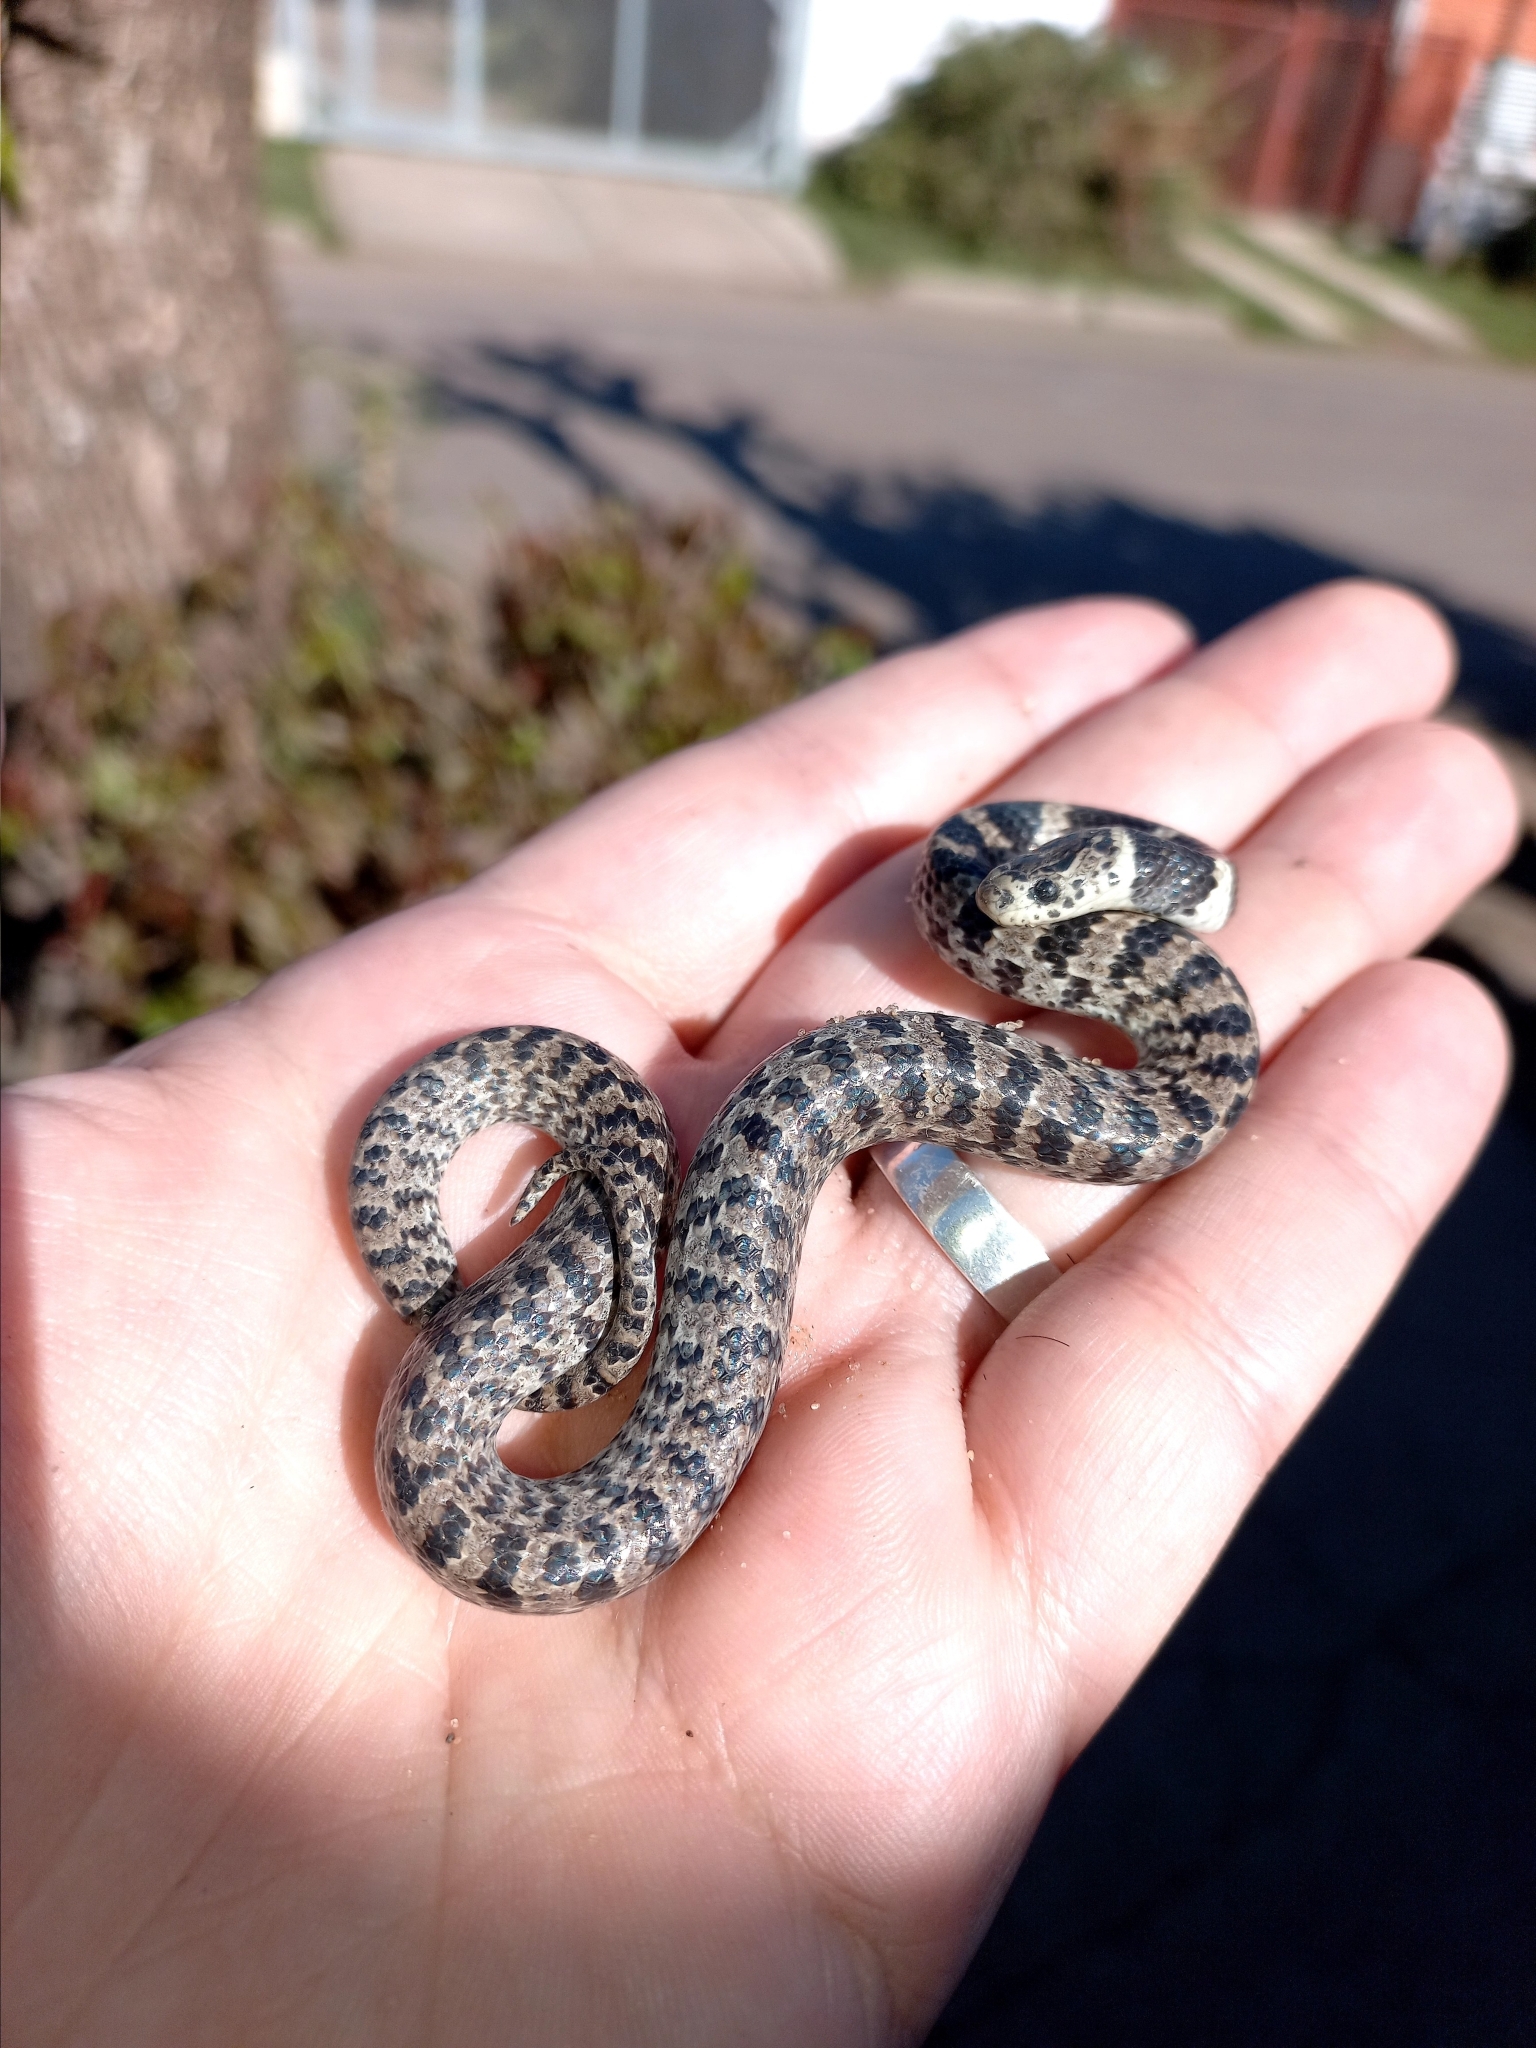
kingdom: Animalia
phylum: Chordata
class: Squamata
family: Colubridae
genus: Dipsas
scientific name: Dipsas turgida
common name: Bolivian tree snake
